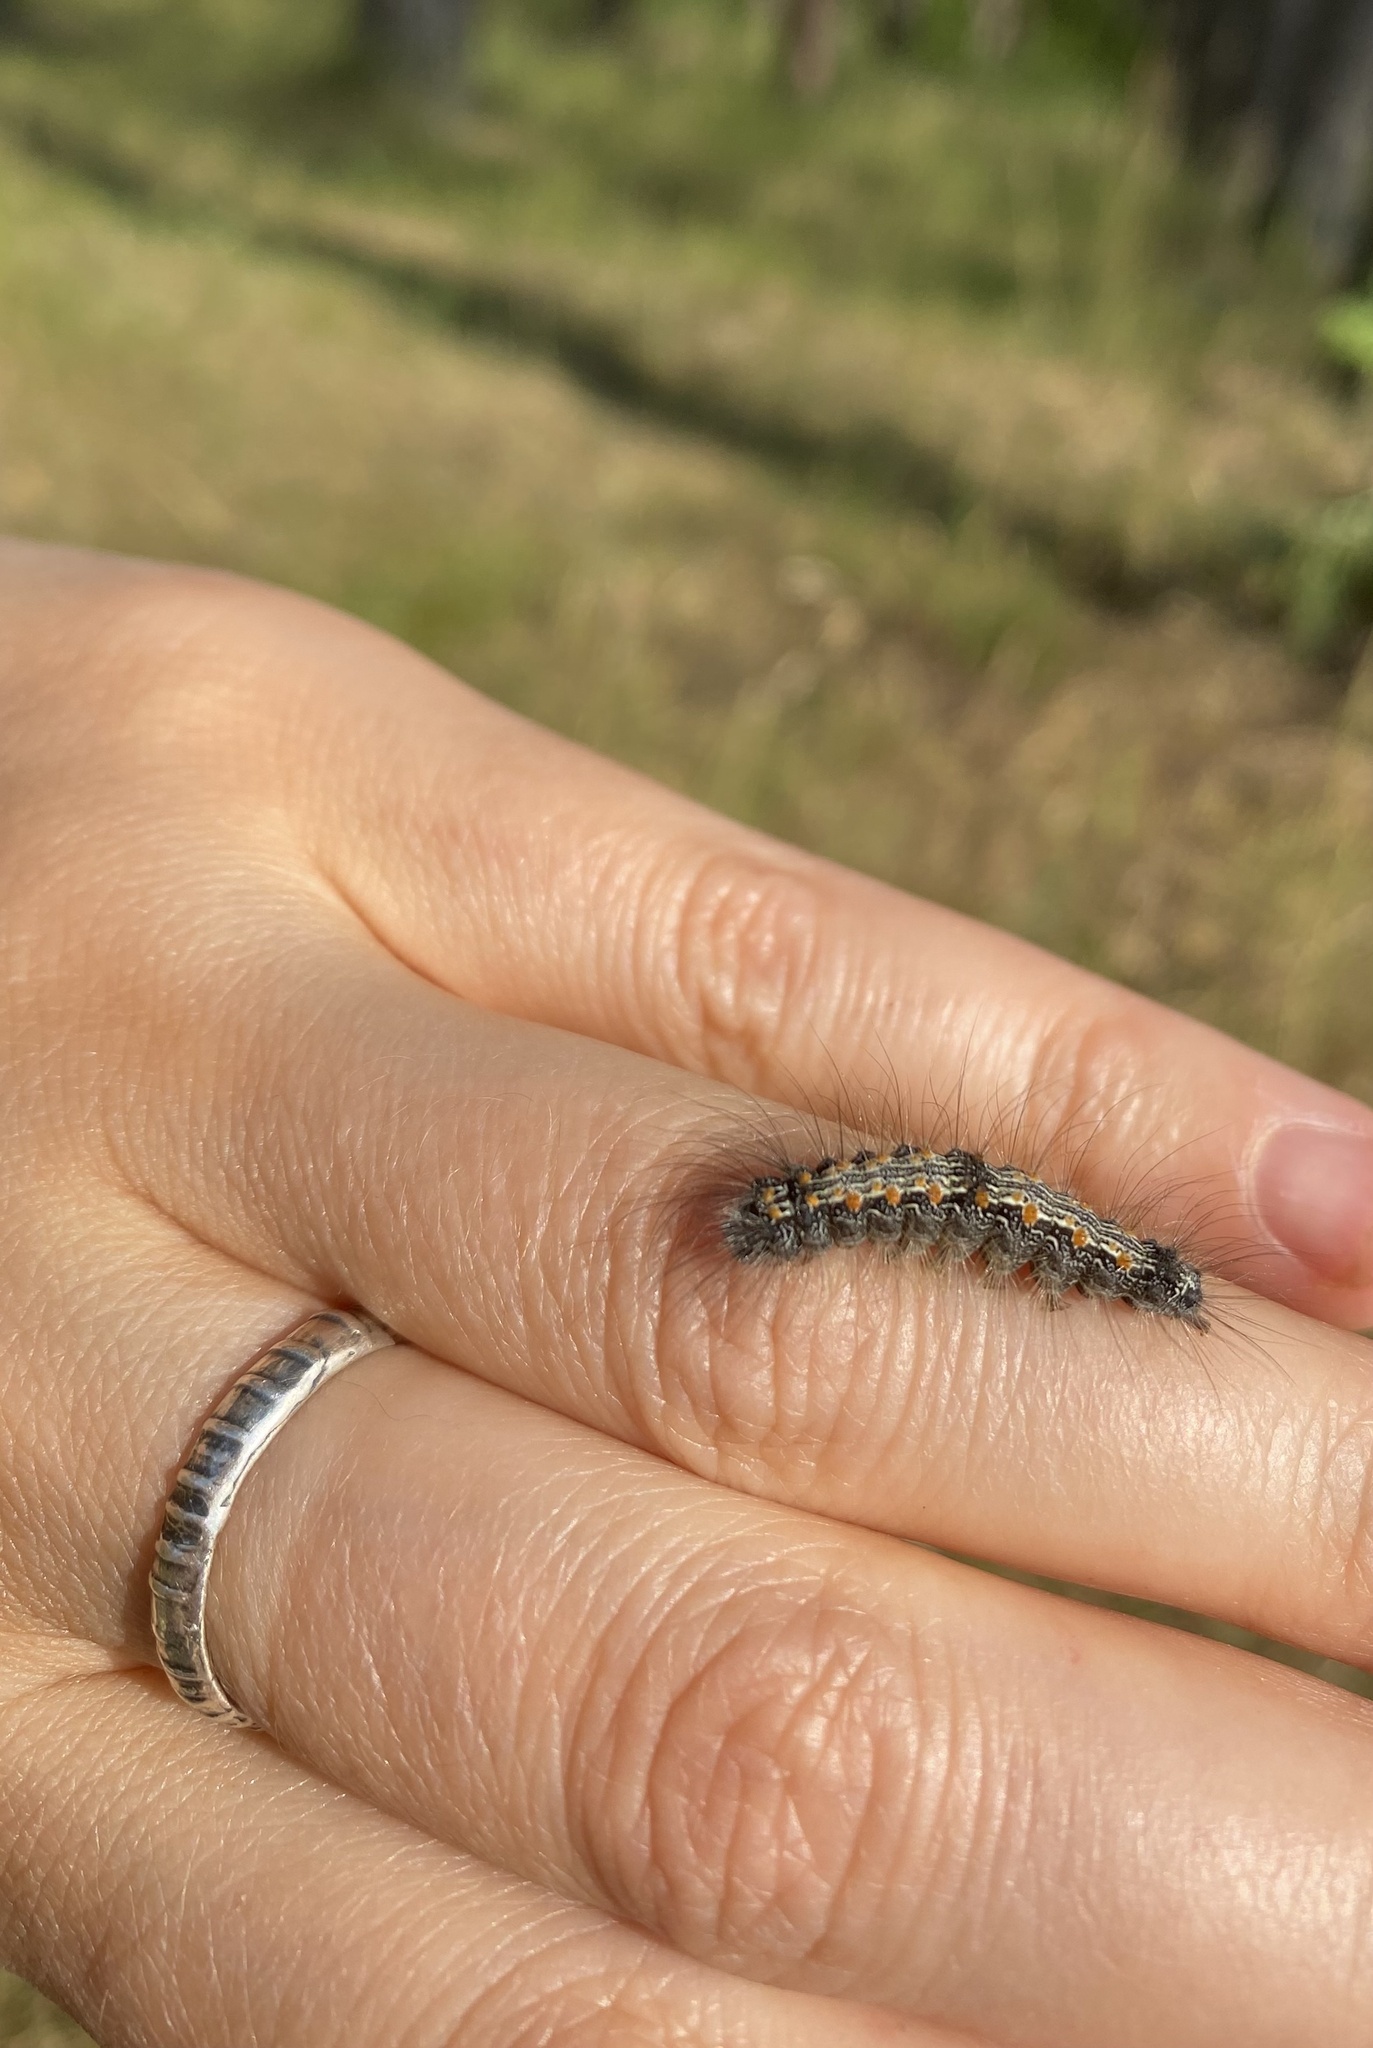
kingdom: Animalia
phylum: Arthropoda
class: Insecta
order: Lepidoptera
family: Erebidae
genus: Lithosia
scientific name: Lithosia quadra
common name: Four-spotted footman
